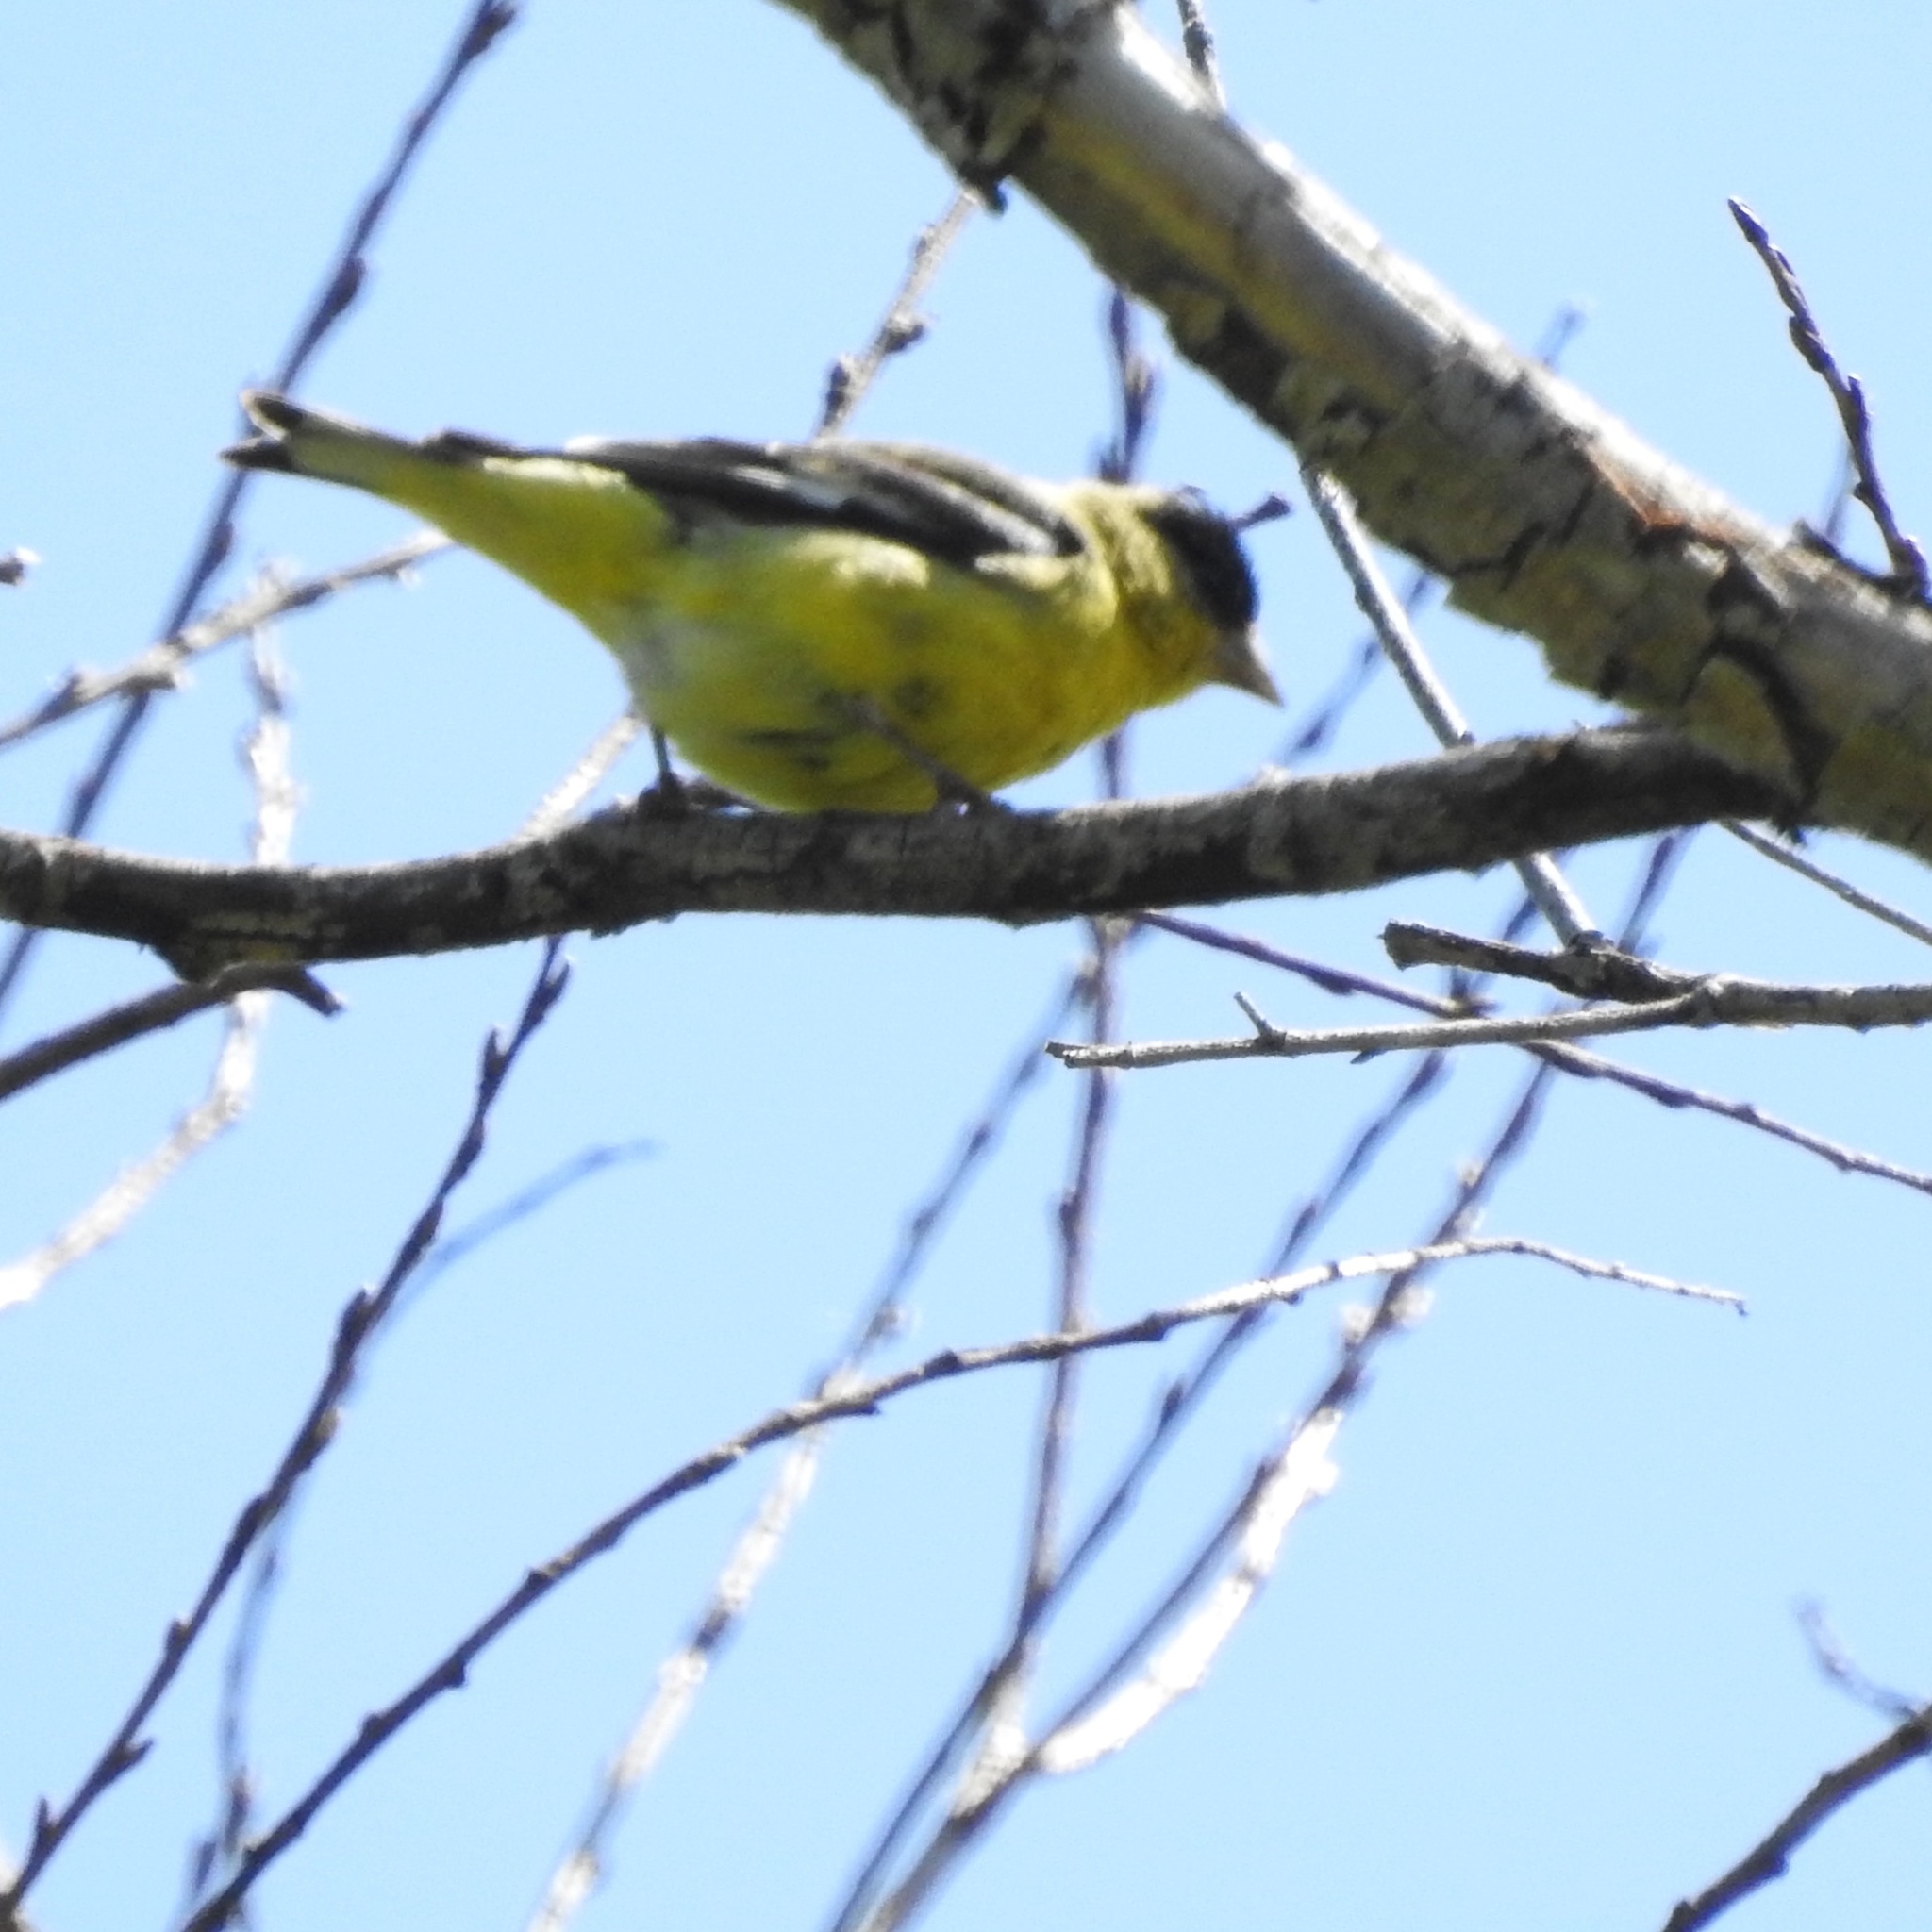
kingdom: Animalia
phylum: Chordata
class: Aves
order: Passeriformes
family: Fringillidae
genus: Spinus
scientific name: Spinus psaltria
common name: Lesser goldfinch
